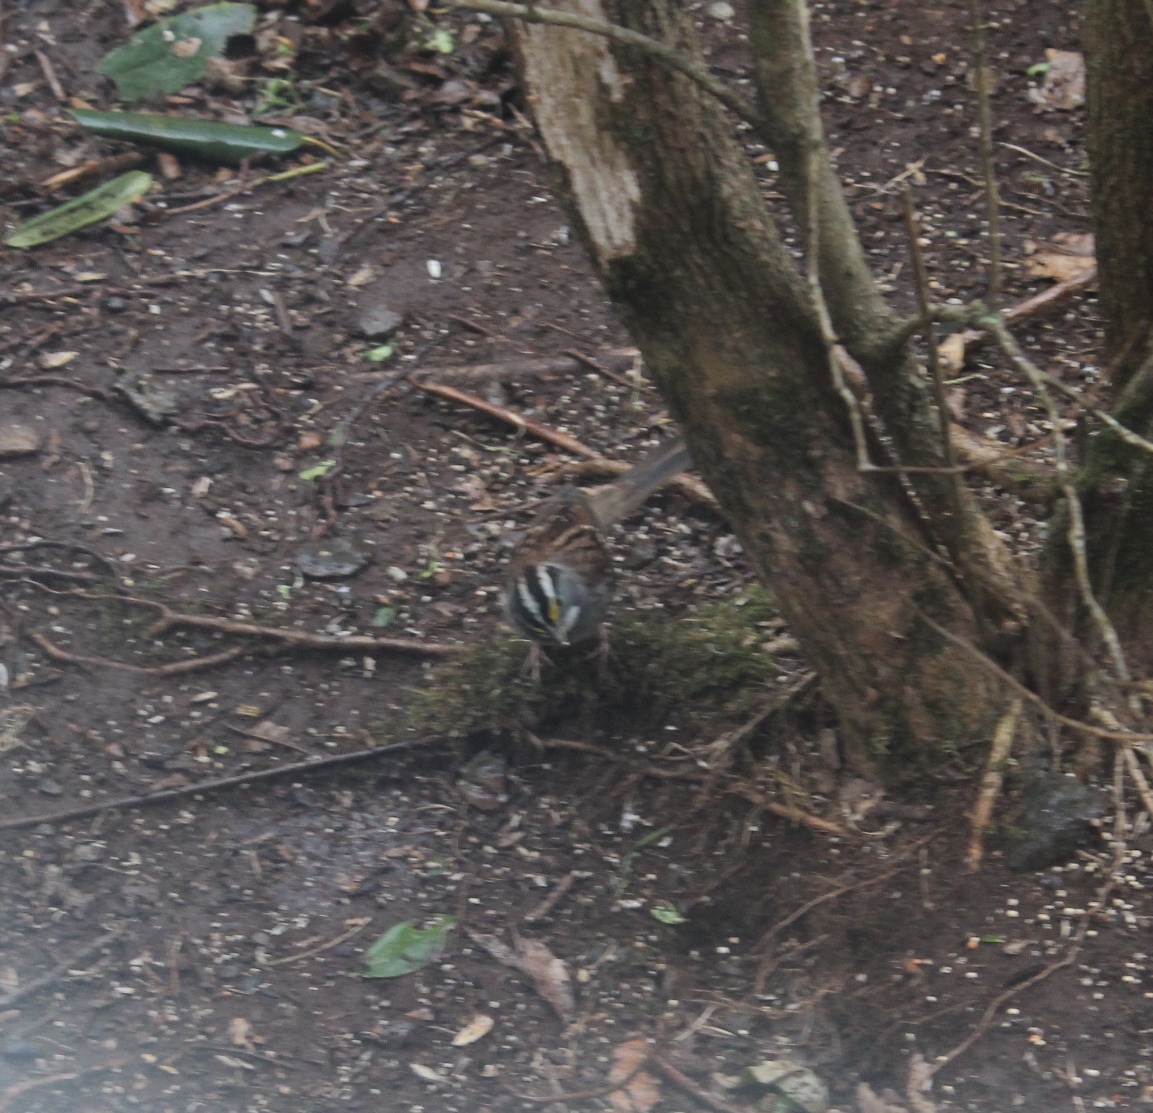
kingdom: Animalia
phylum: Chordata
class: Aves
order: Passeriformes
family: Passerellidae
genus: Zonotrichia
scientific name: Zonotrichia albicollis
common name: White-throated sparrow
